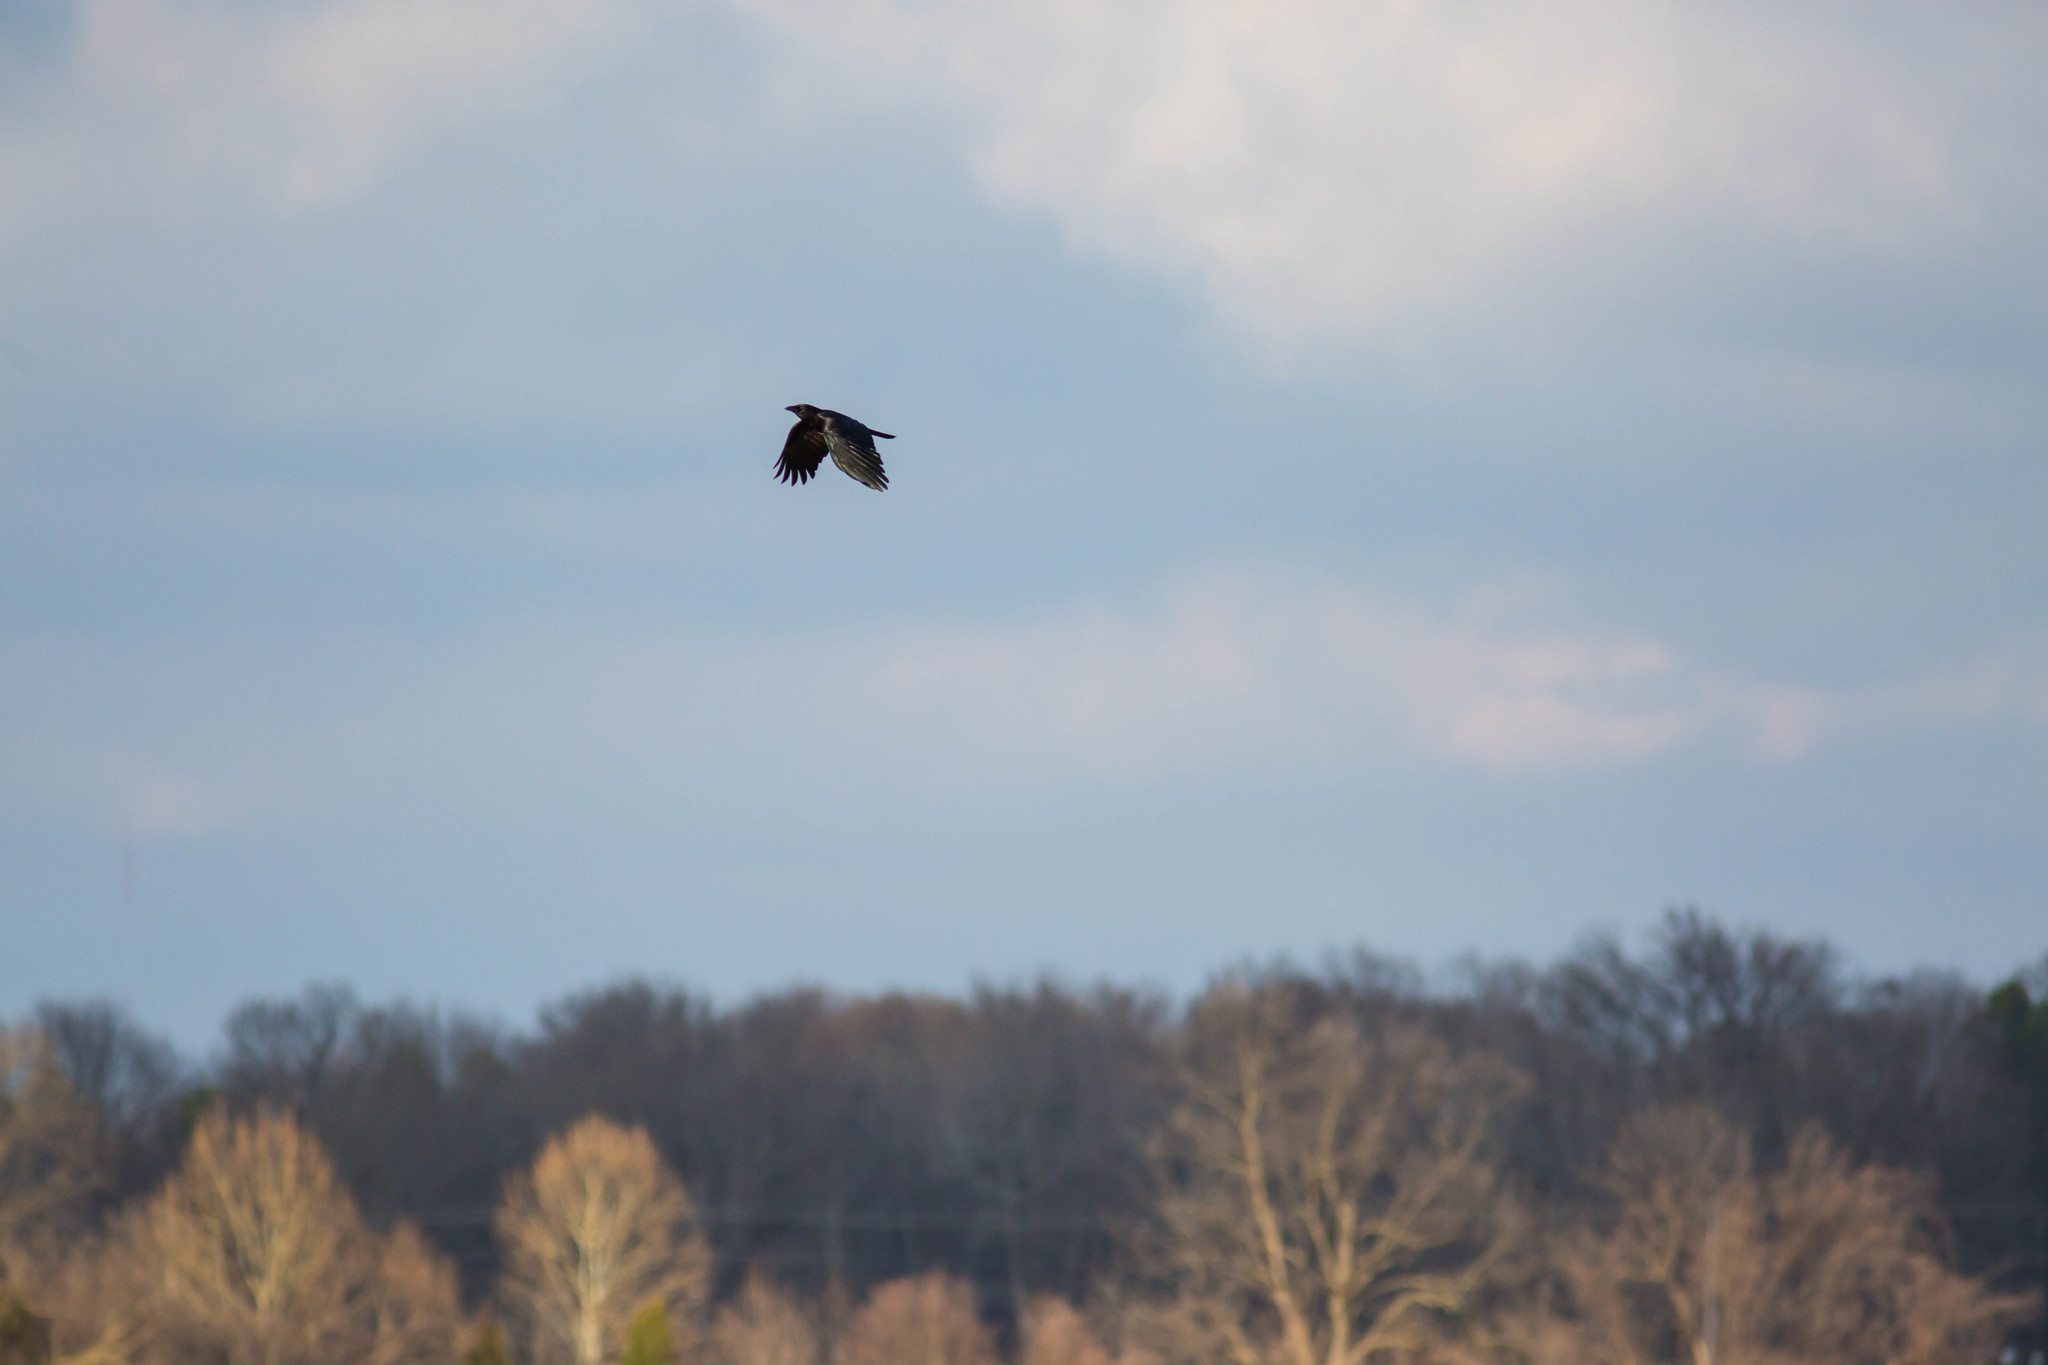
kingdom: Animalia
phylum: Chordata
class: Aves
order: Passeriformes
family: Corvidae
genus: Corvus
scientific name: Corvus brachyrhynchos
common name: American crow
